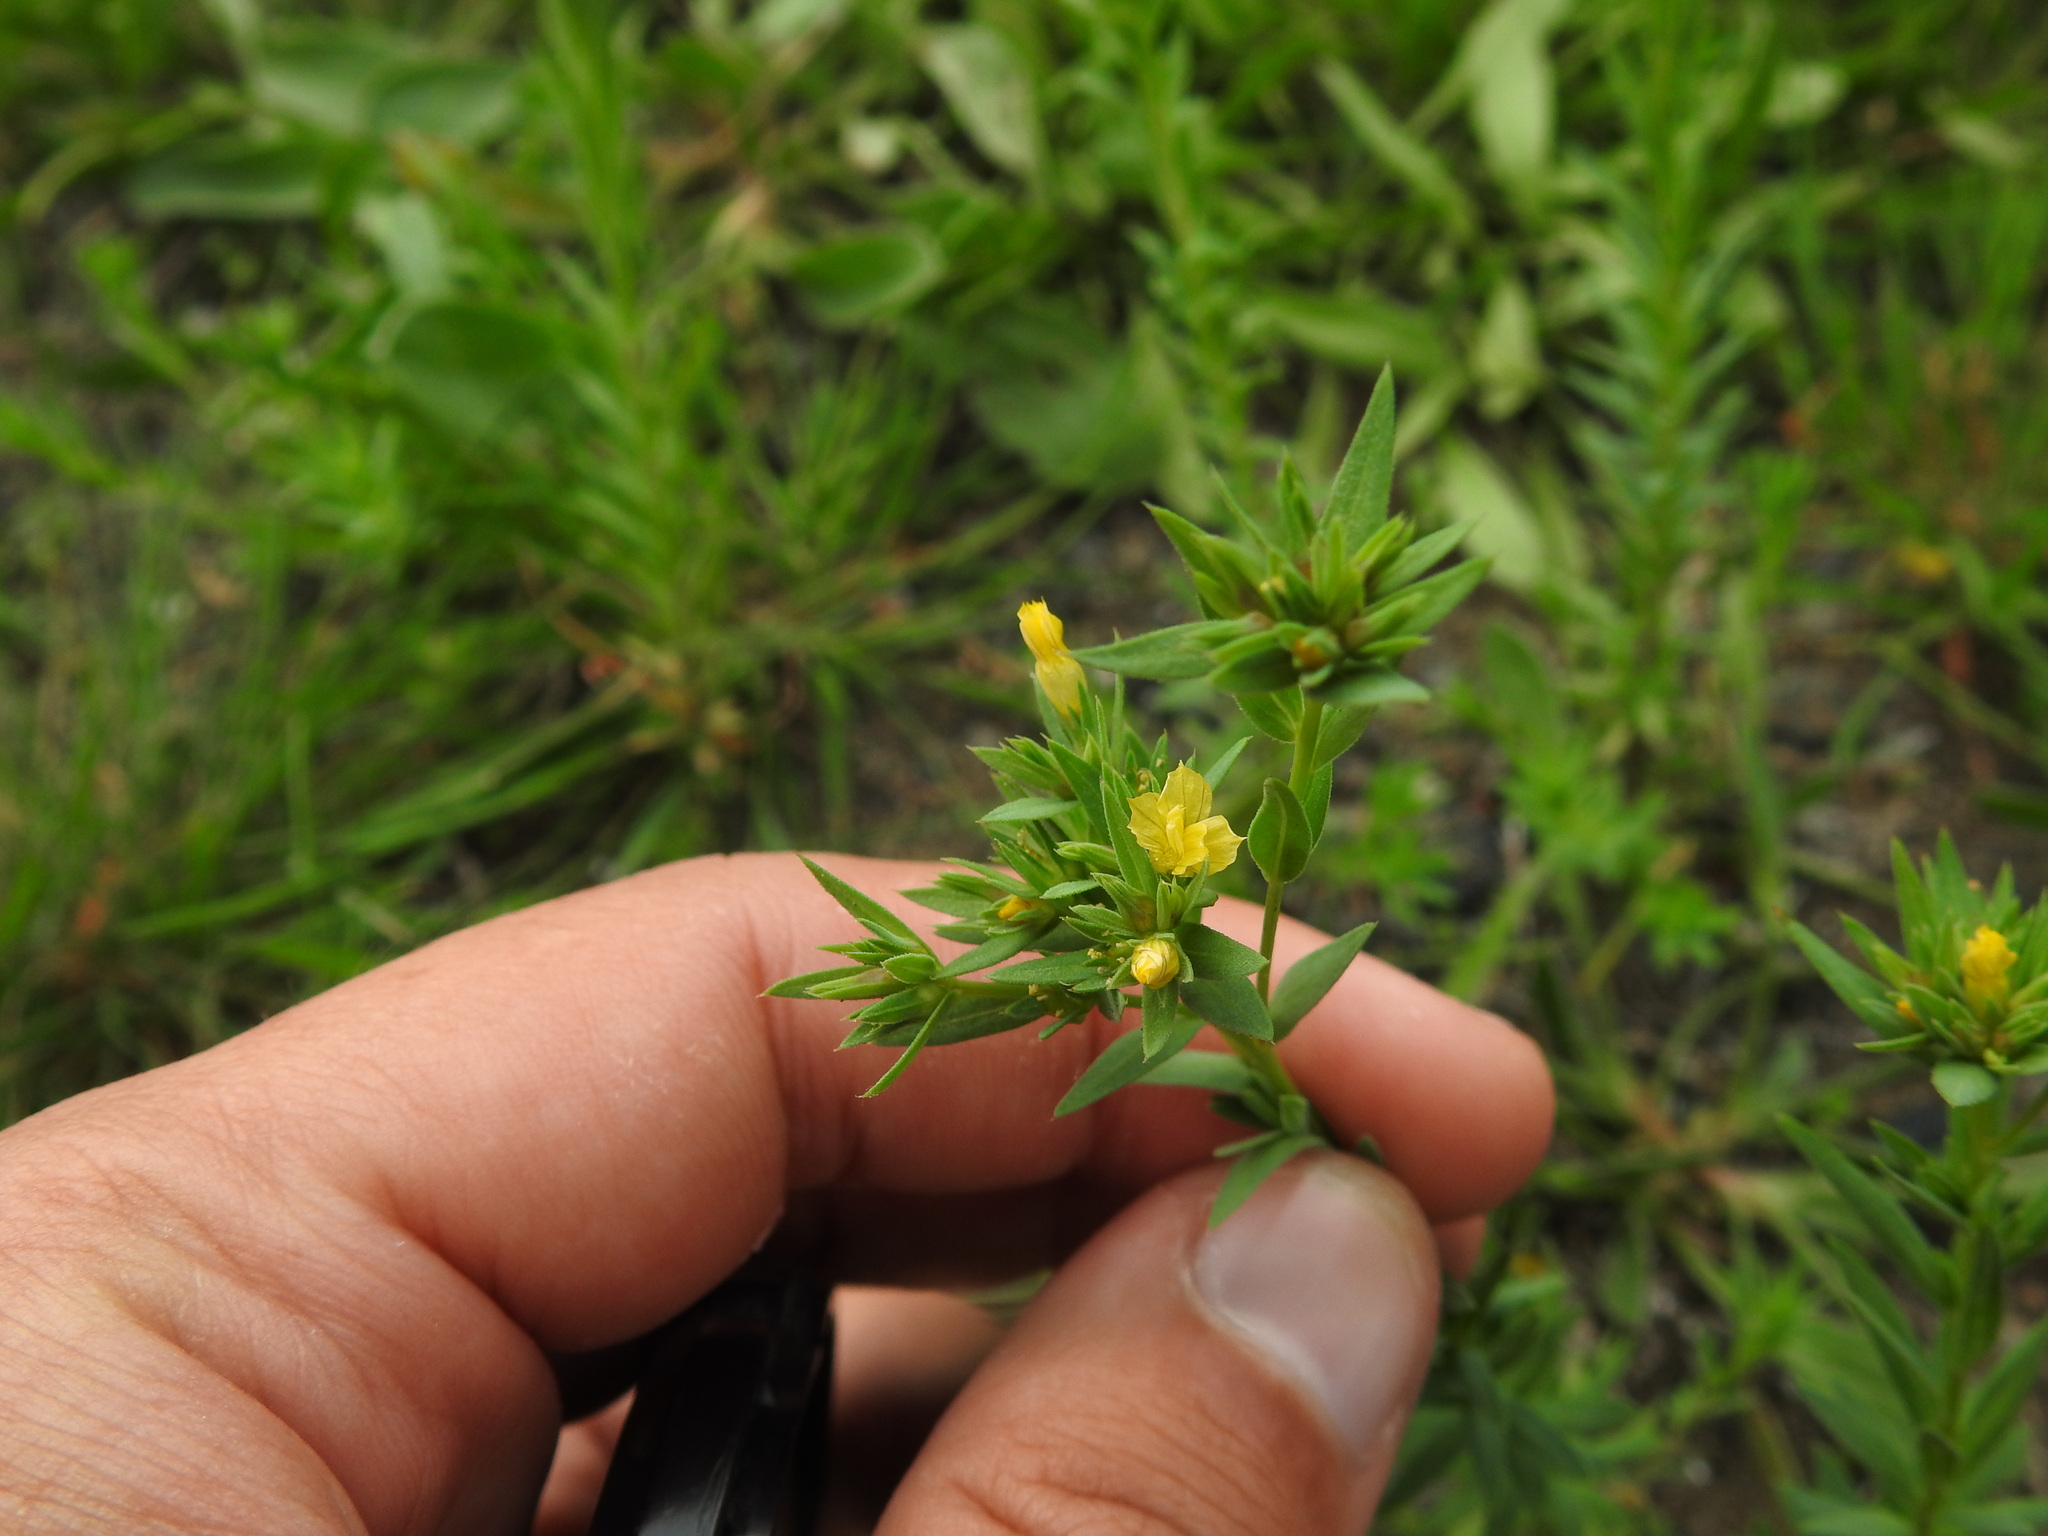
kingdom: Plantae
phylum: Tracheophyta
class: Magnoliopsida
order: Malpighiales
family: Linaceae
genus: Linum
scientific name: Linum strictum
